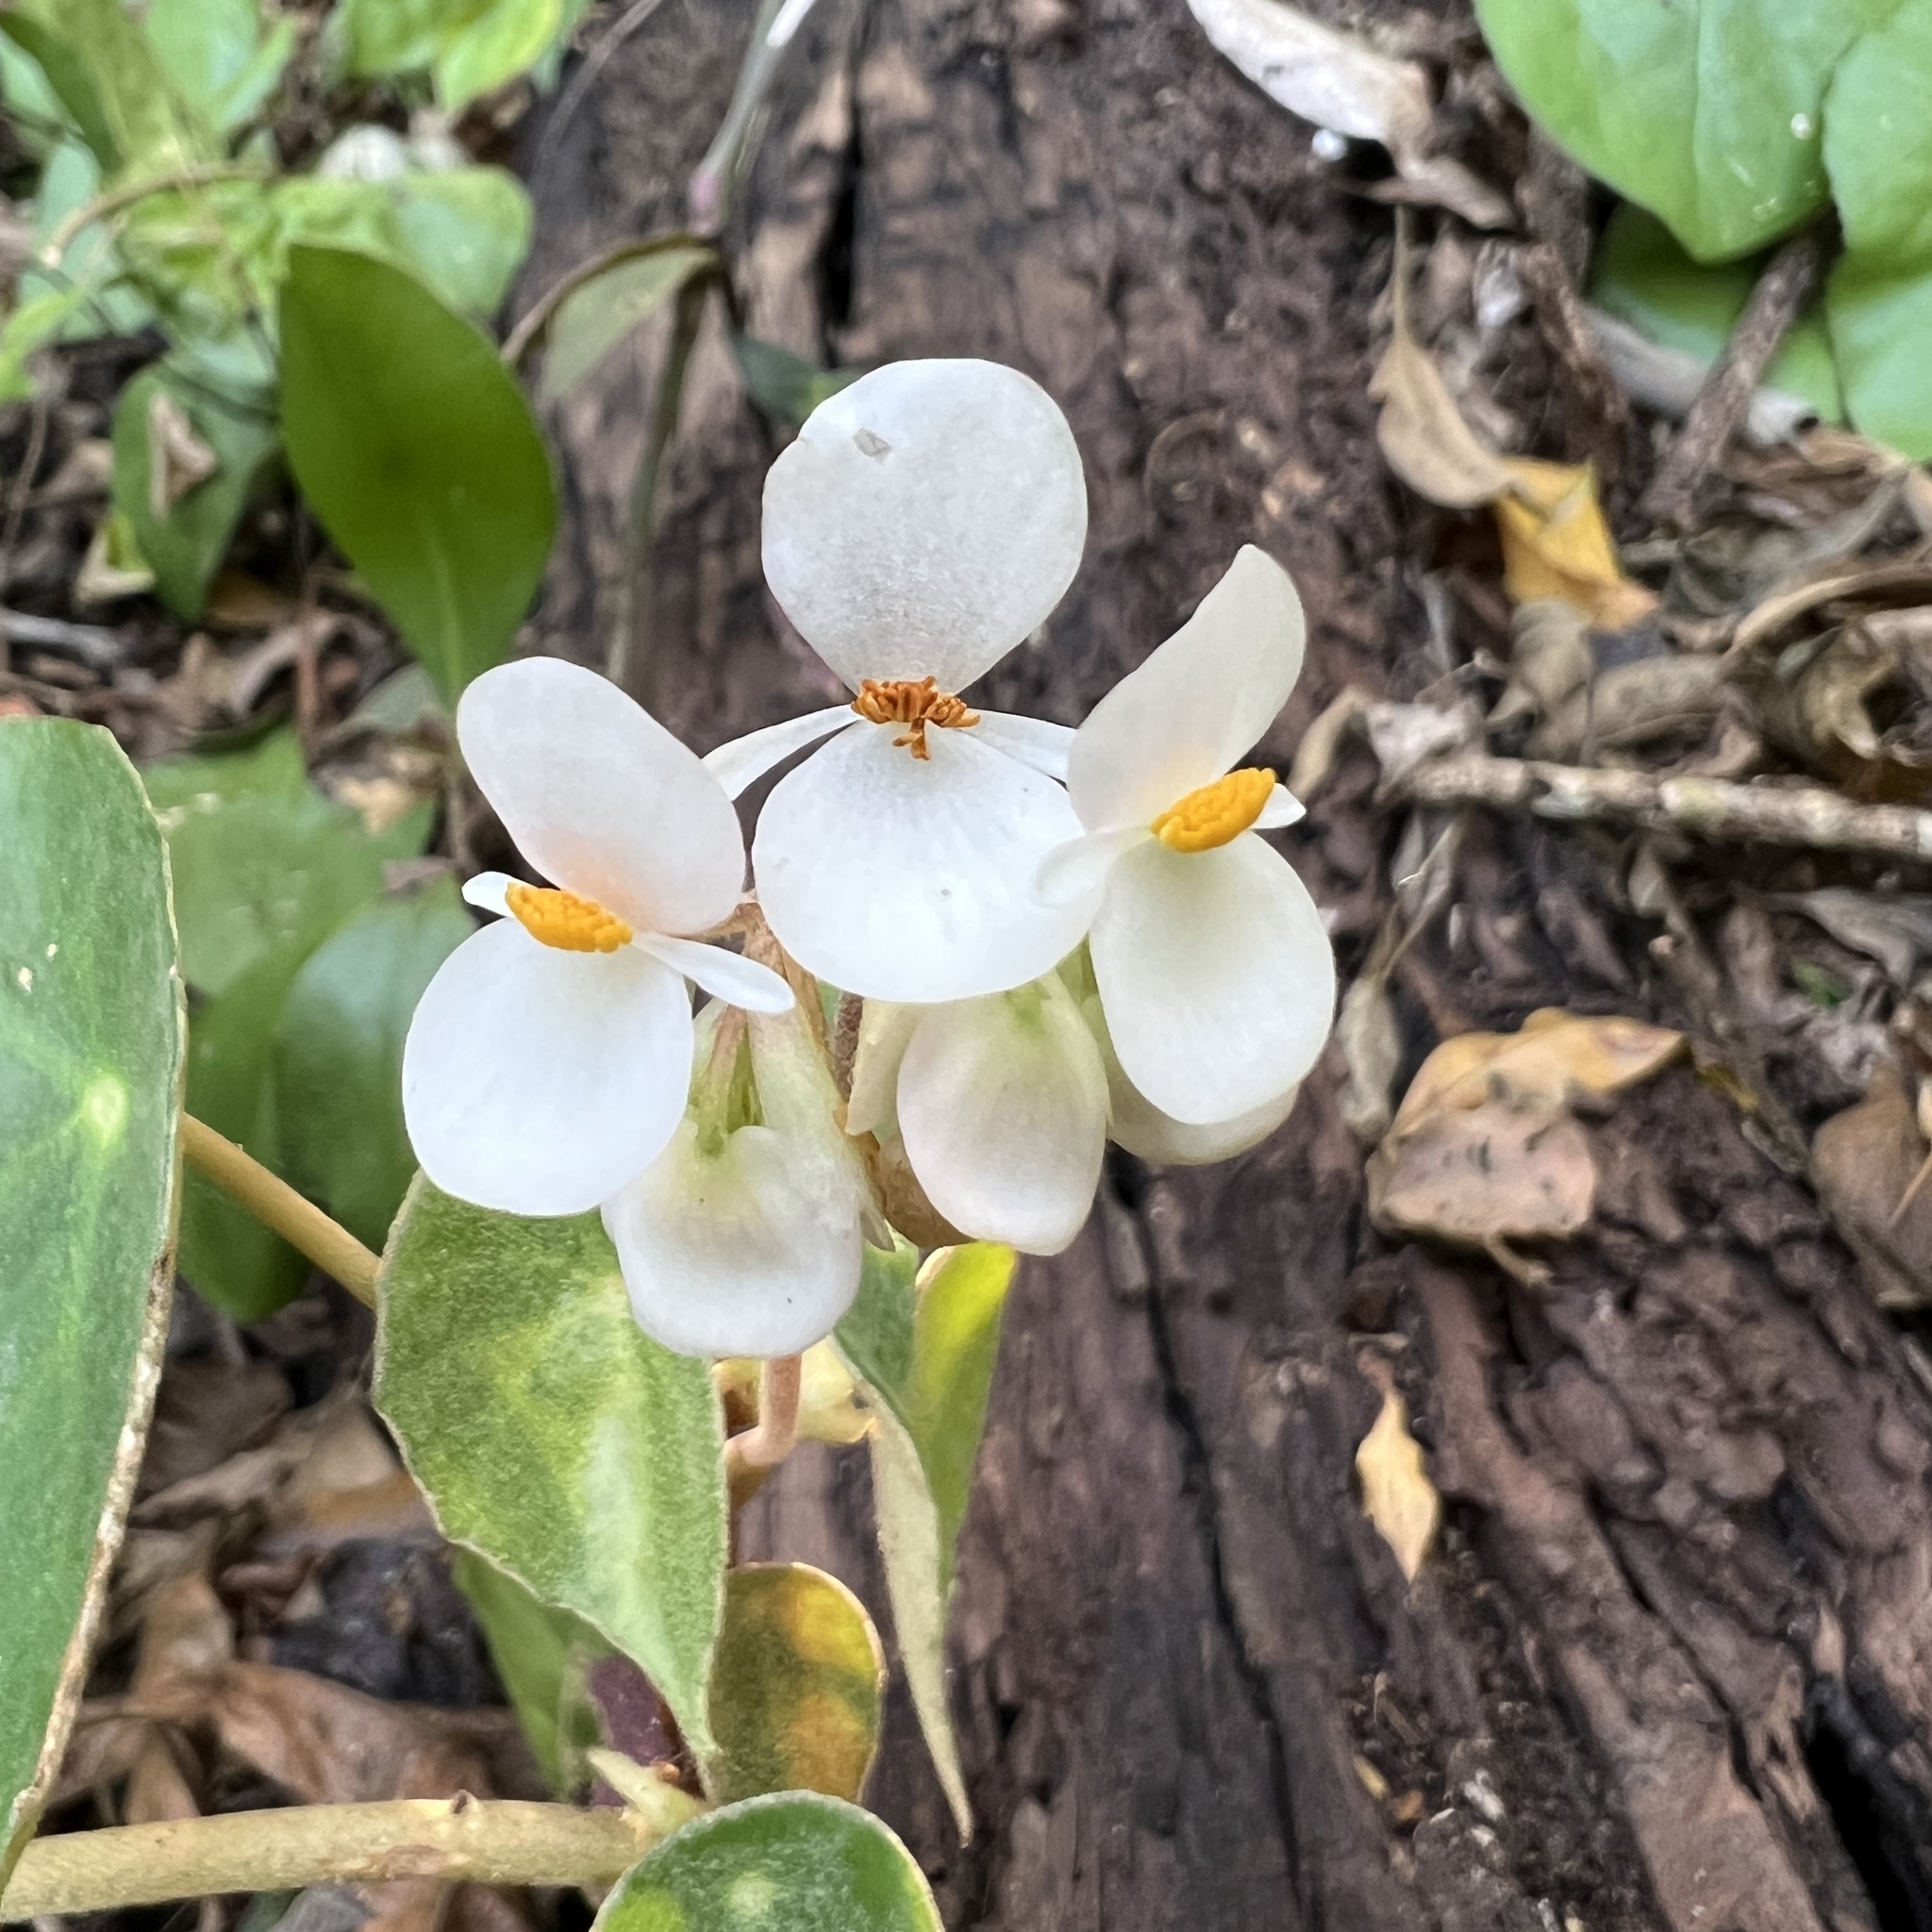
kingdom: Plantae
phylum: Tracheophyta
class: Magnoliopsida
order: Cucurbitales
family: Begoniaceae
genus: Begonia
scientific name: Begonia peltata
